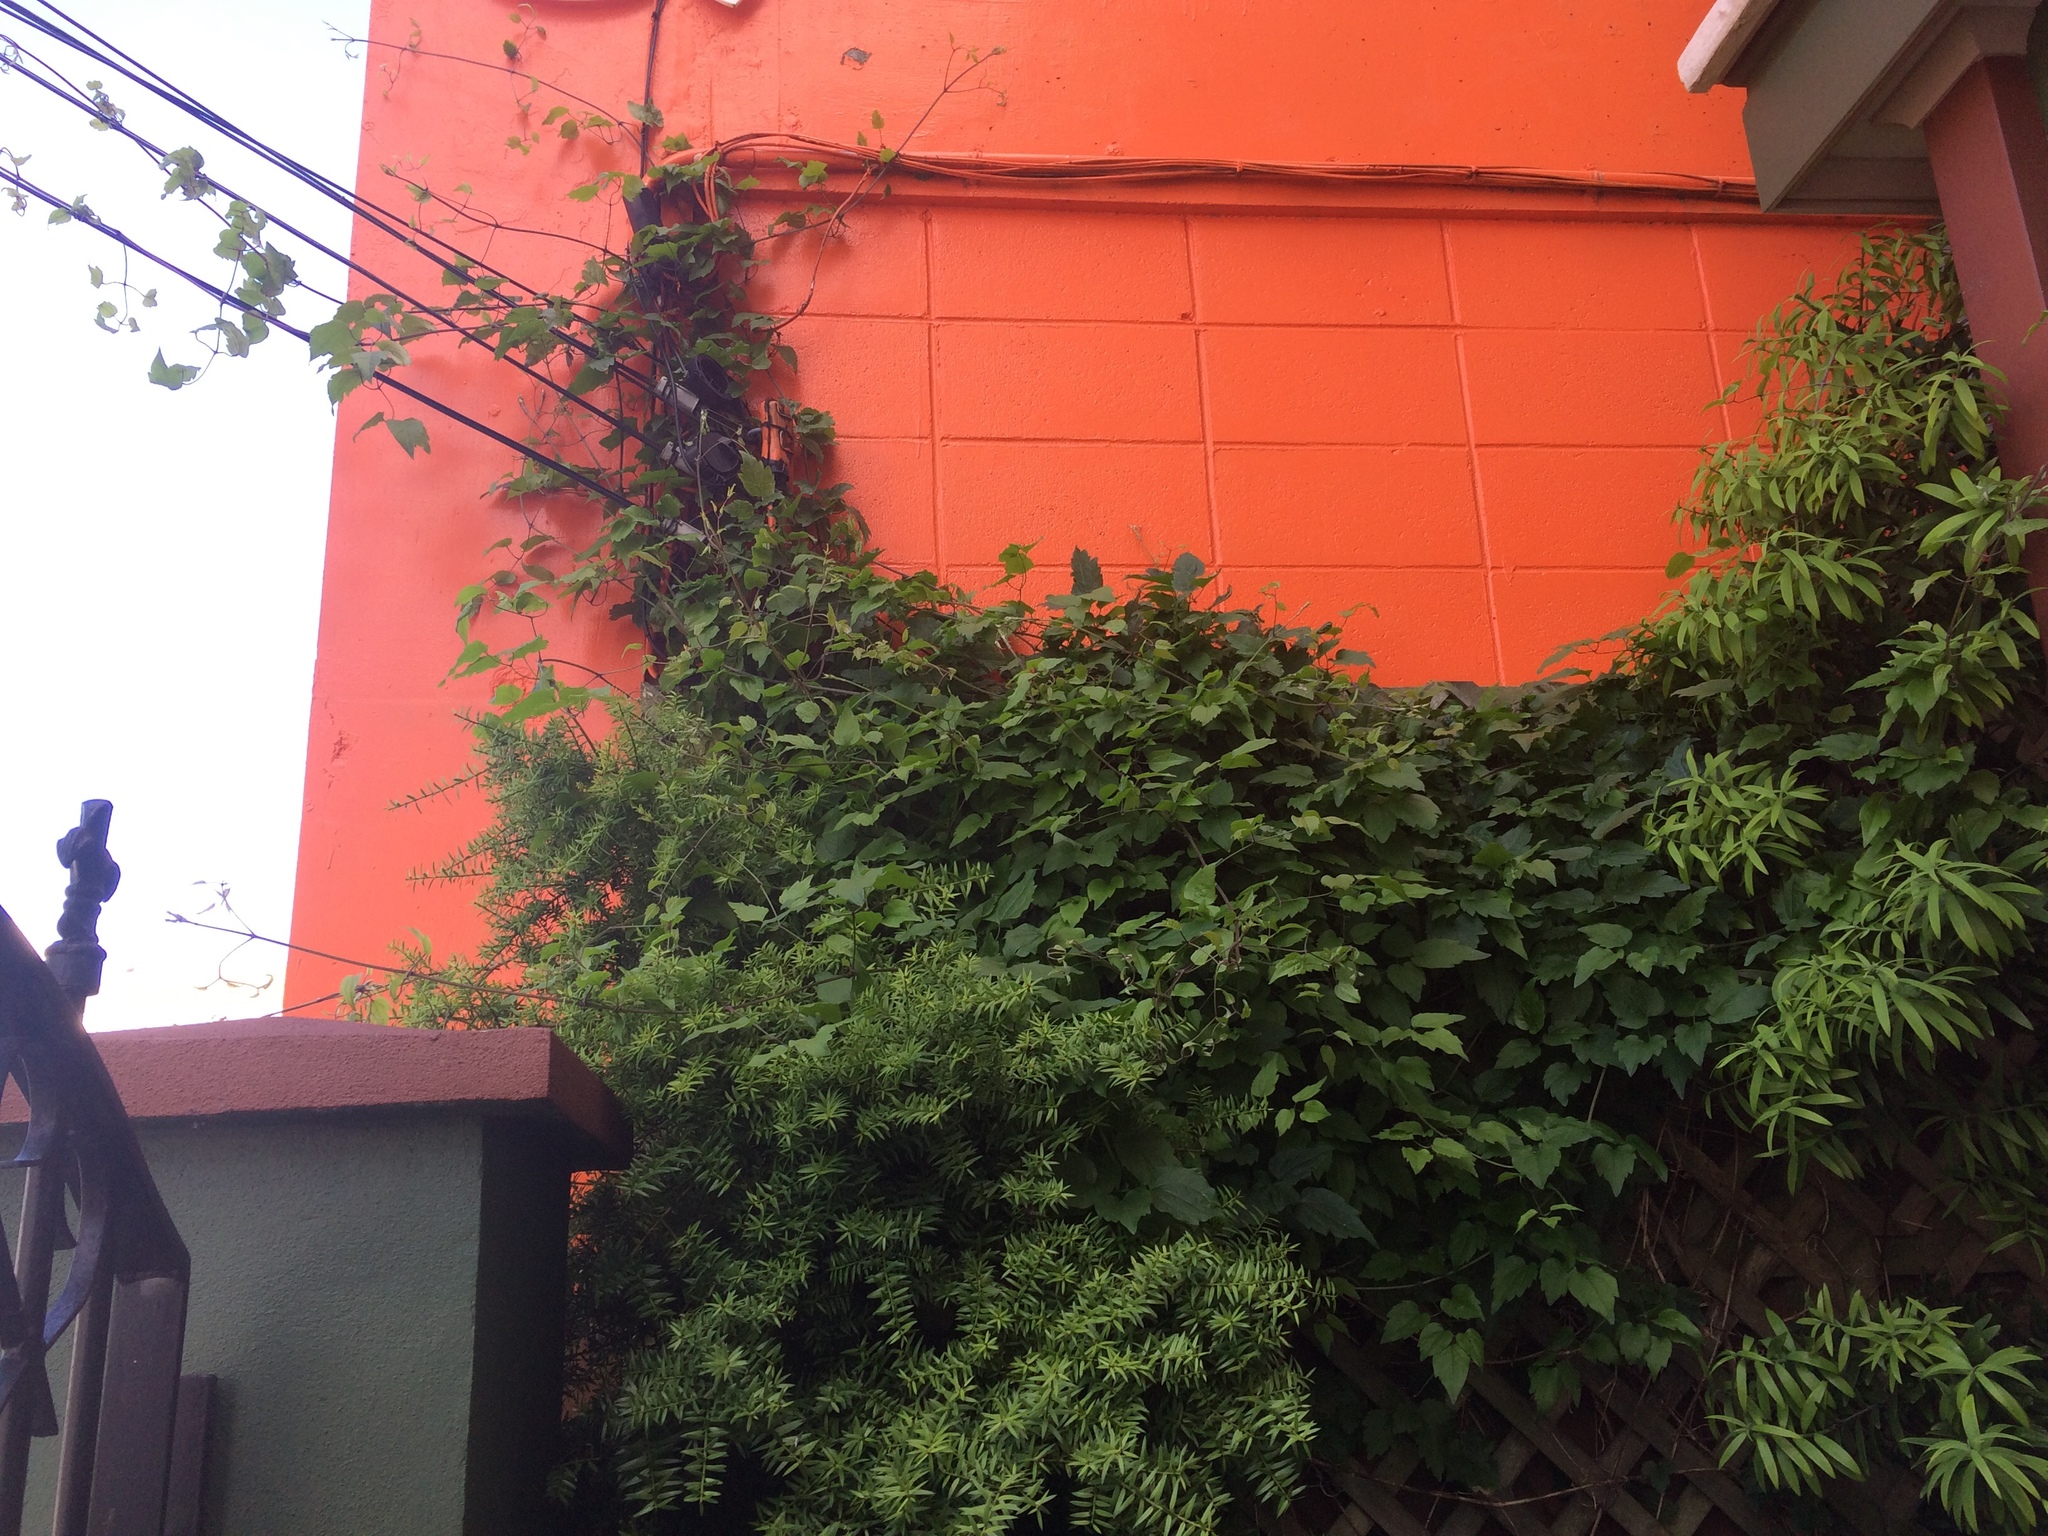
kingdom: Plantae
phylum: Tracheophyta
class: Magnoliopsida
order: Ranunculales
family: Ranunculaceae
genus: Clematis
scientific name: Clematis vitalba
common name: Evergreen clematis
